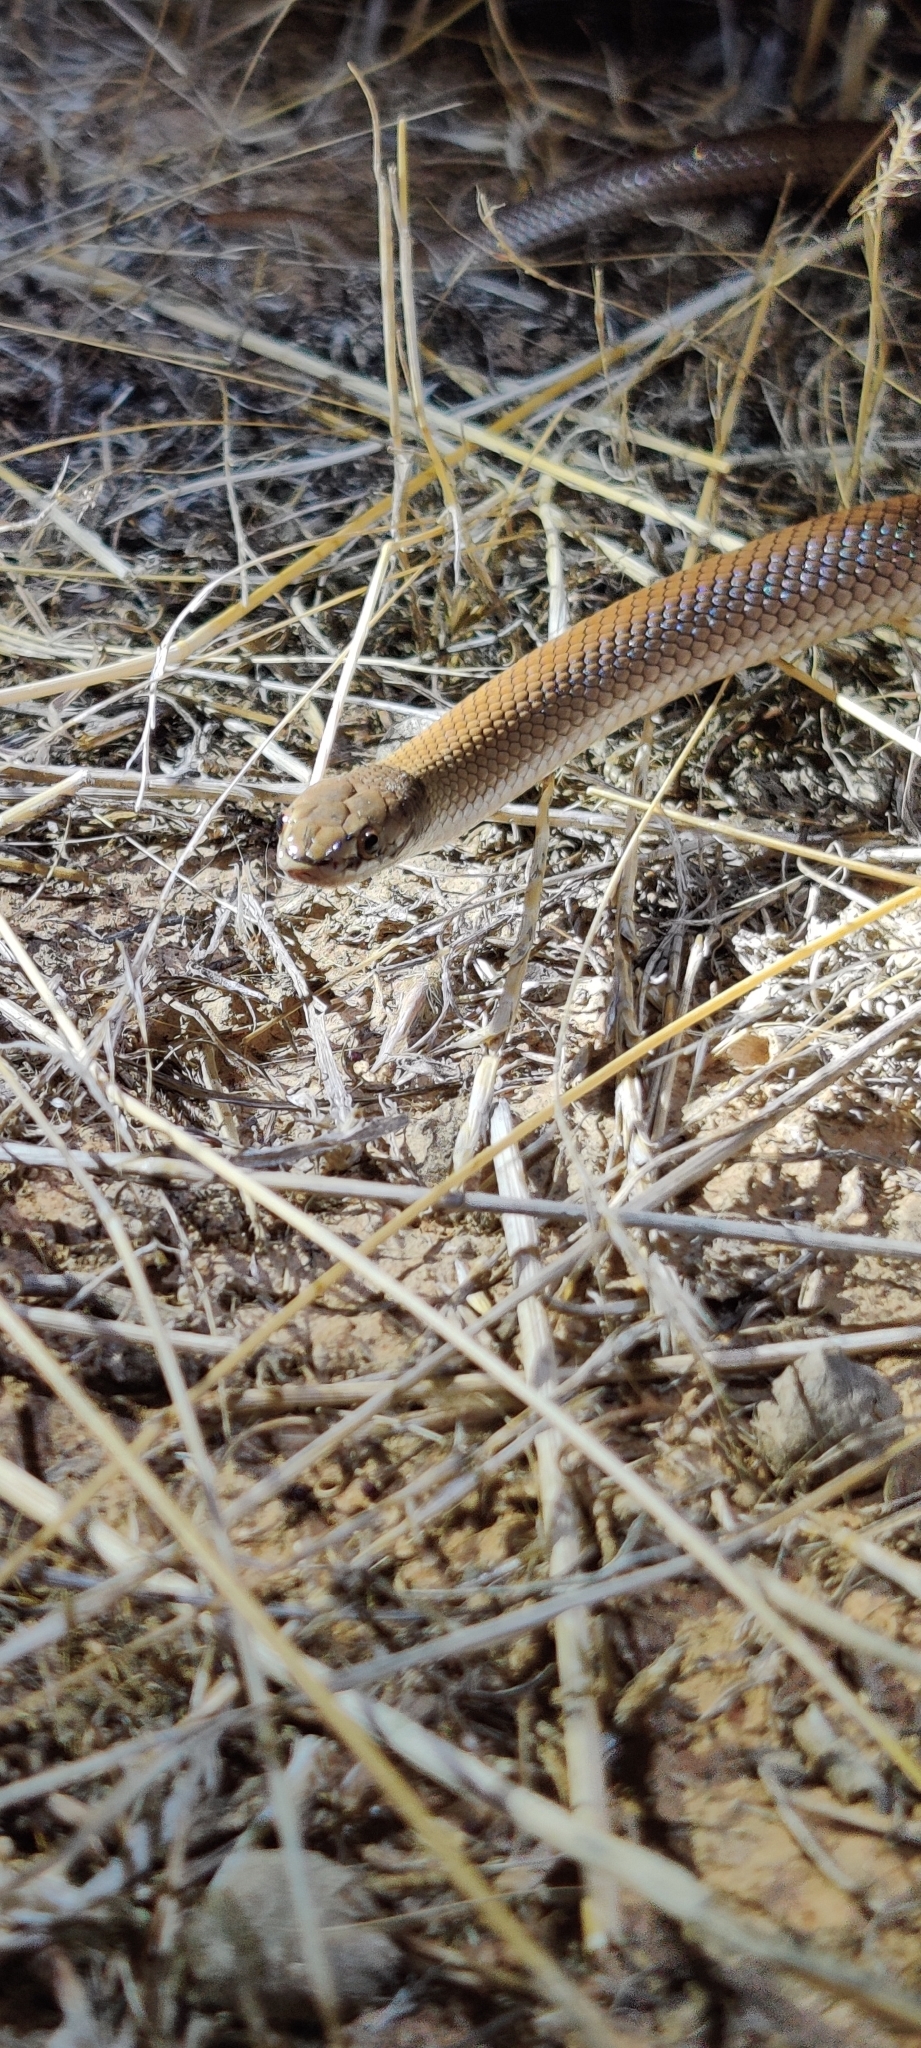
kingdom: Animalia
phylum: Chordata
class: Squamata
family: Elapidae
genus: Suta
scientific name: Suta suta
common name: Curl snake
